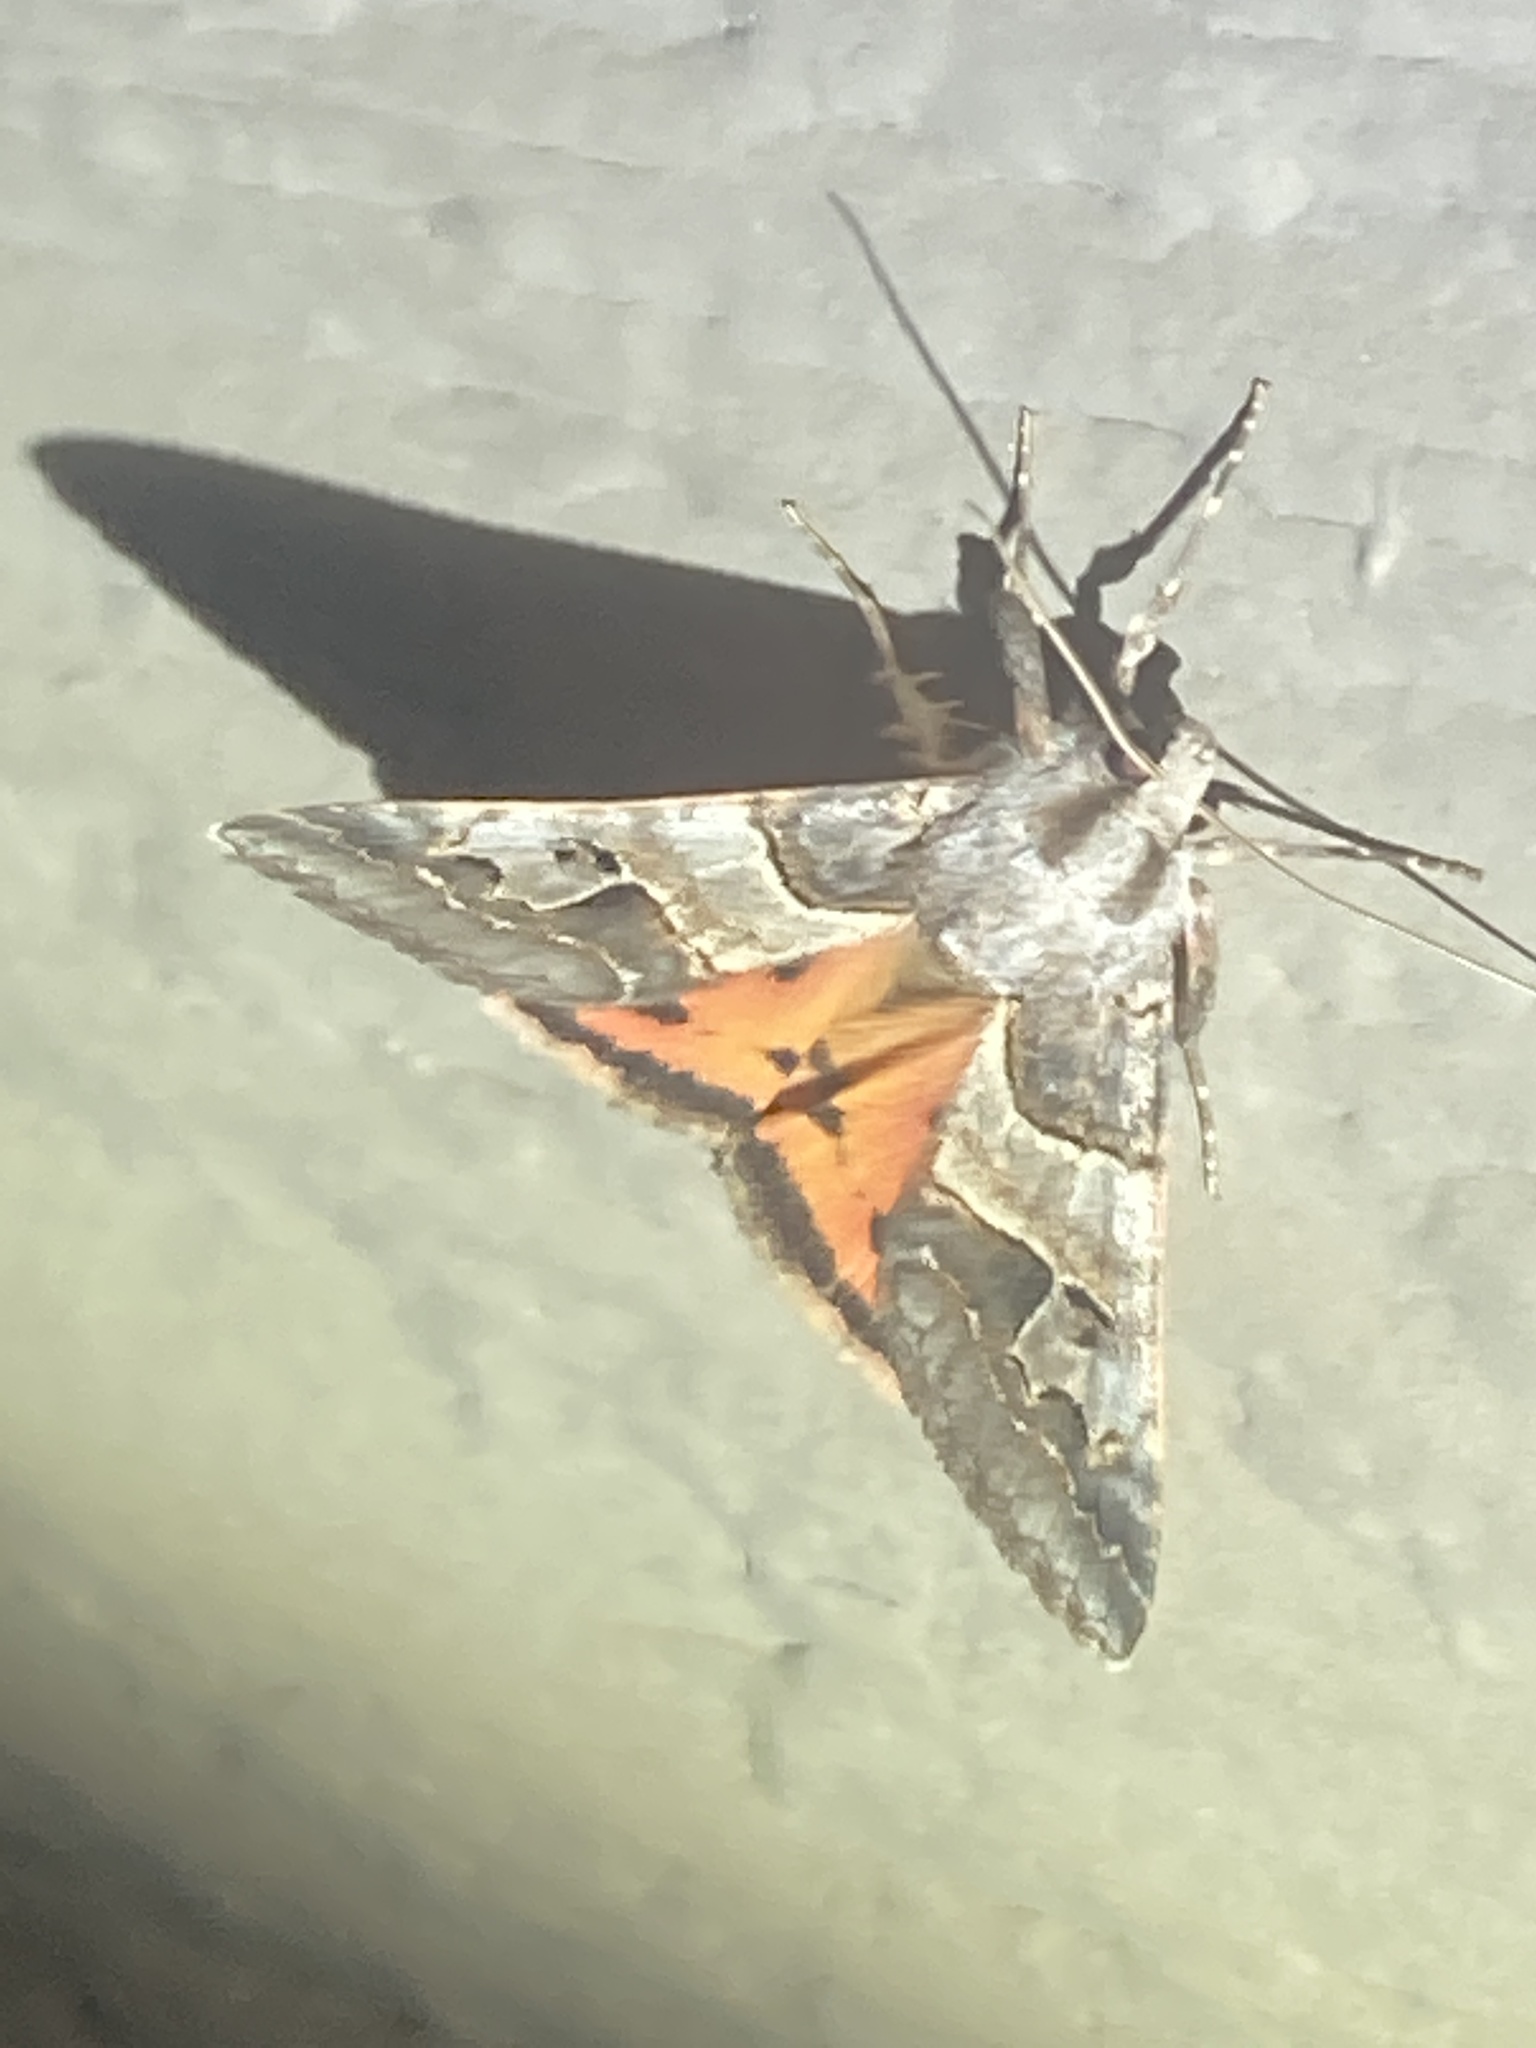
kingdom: Animalia
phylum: Arthropoda
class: Insecta
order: Lepidoptera
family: Erebidae
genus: Drasteria
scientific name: Drasteria ingeniculata
